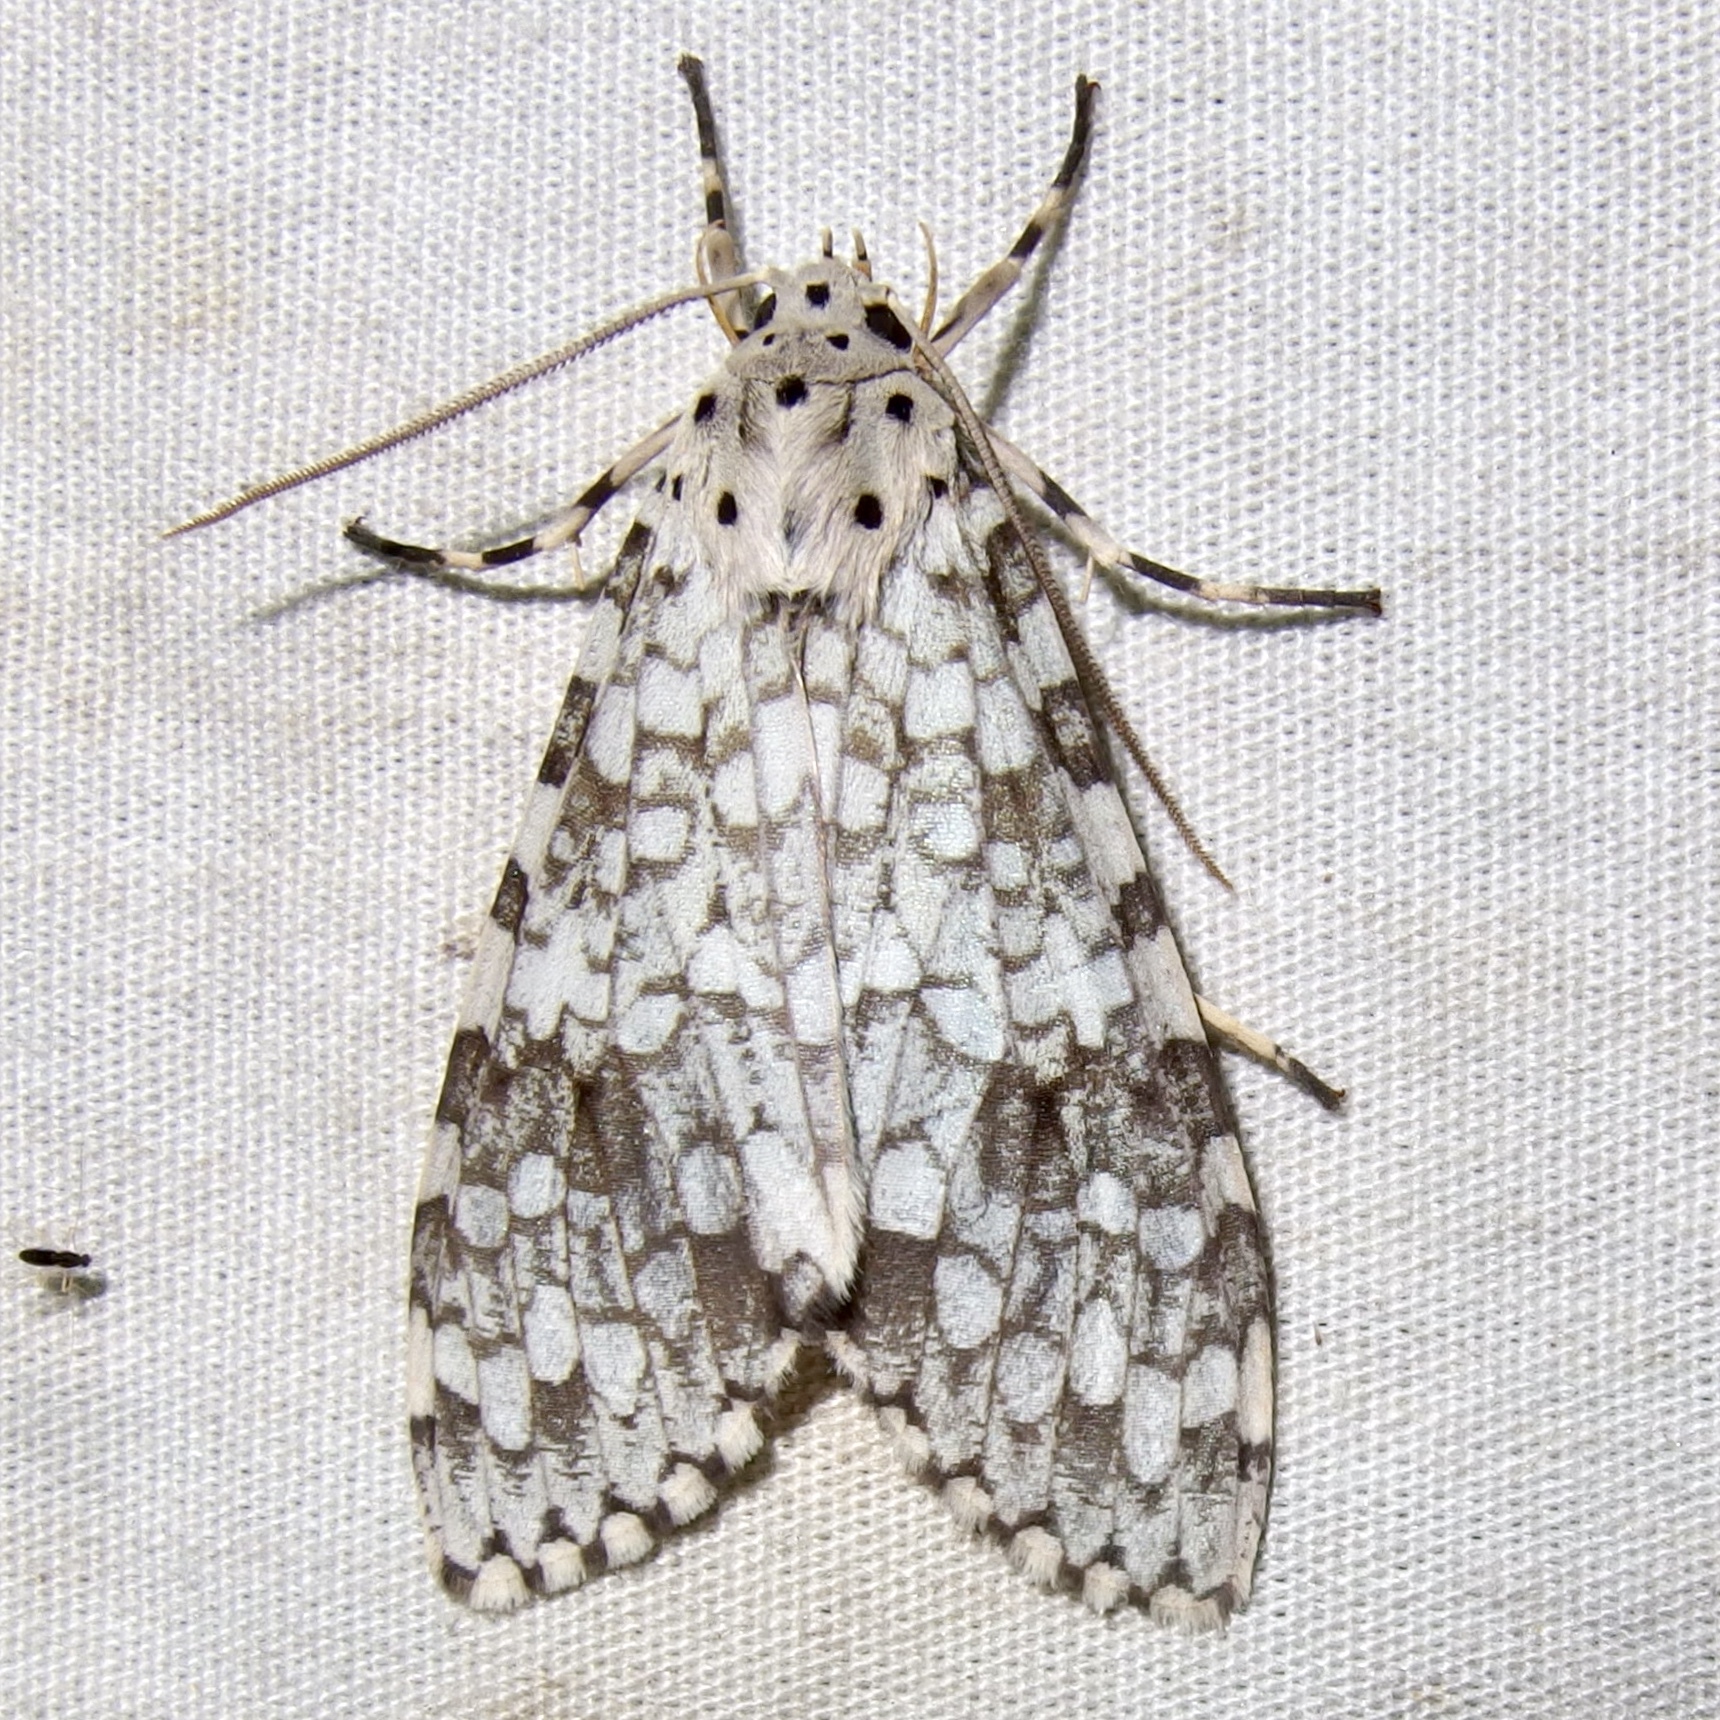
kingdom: Animalia
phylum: Arthropoda
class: Insecta
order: Lepidoptera
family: Erebidae
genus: Carales
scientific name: Carales arizonensis
